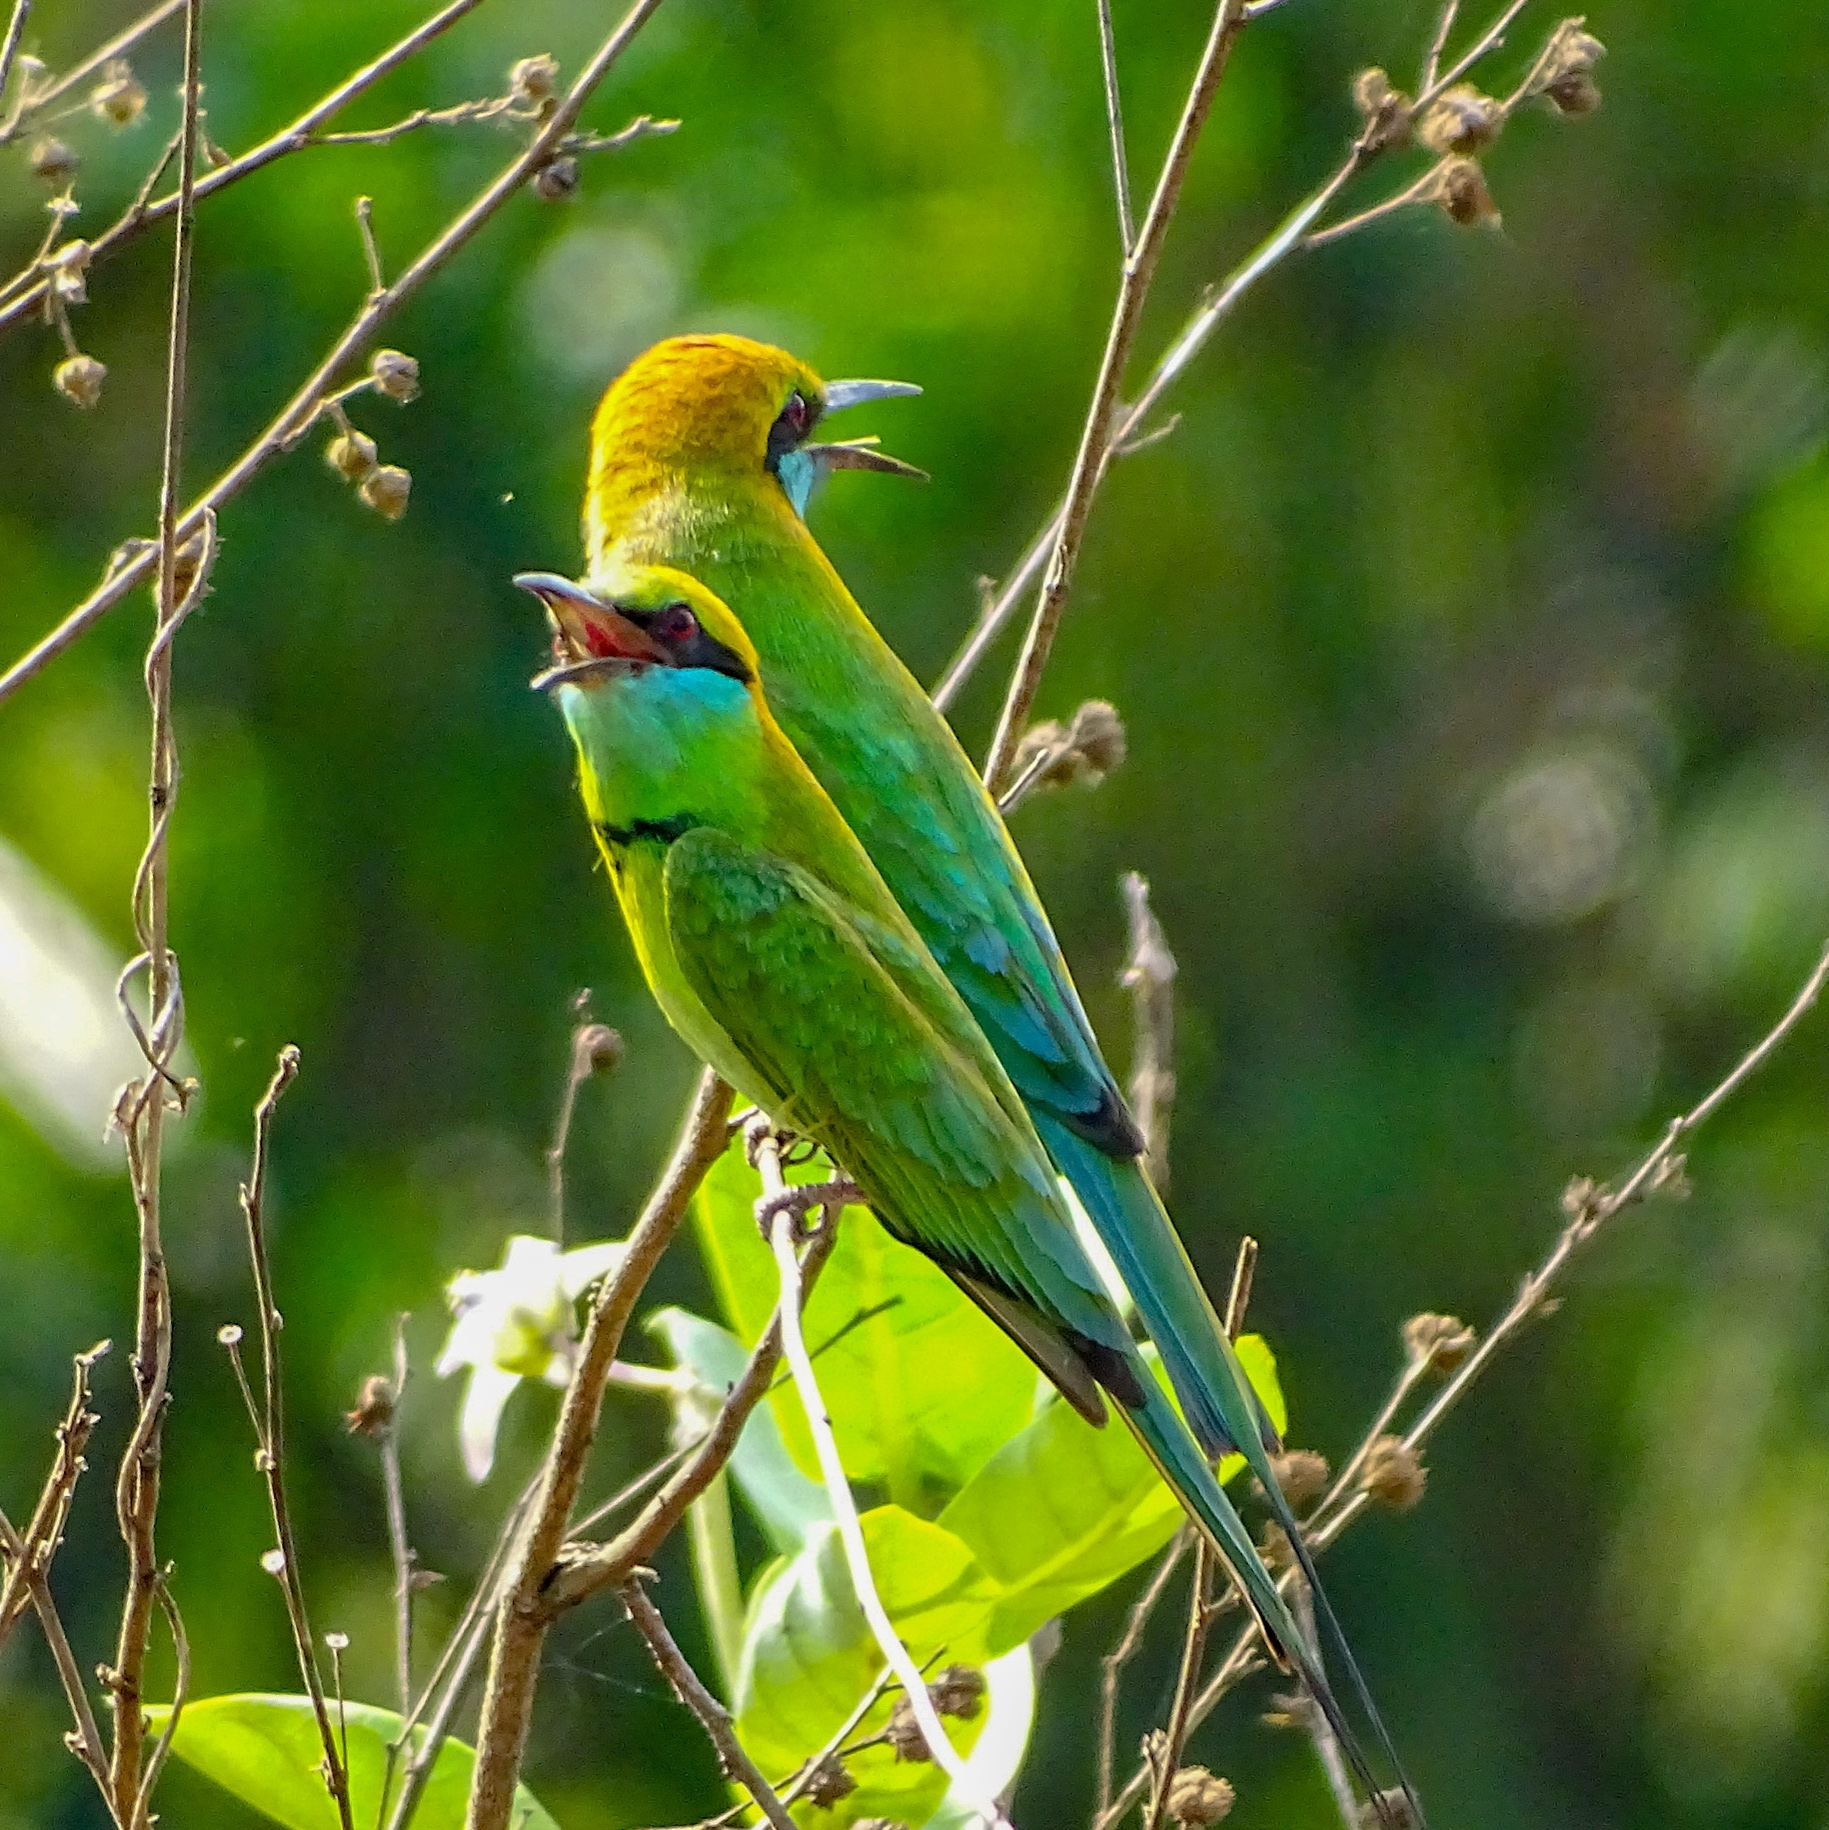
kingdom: Animalia
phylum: Chordata
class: Aves
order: Coraciiformes
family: Meropidae
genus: Merops
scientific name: Merops orientalis
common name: Green bee-eater
